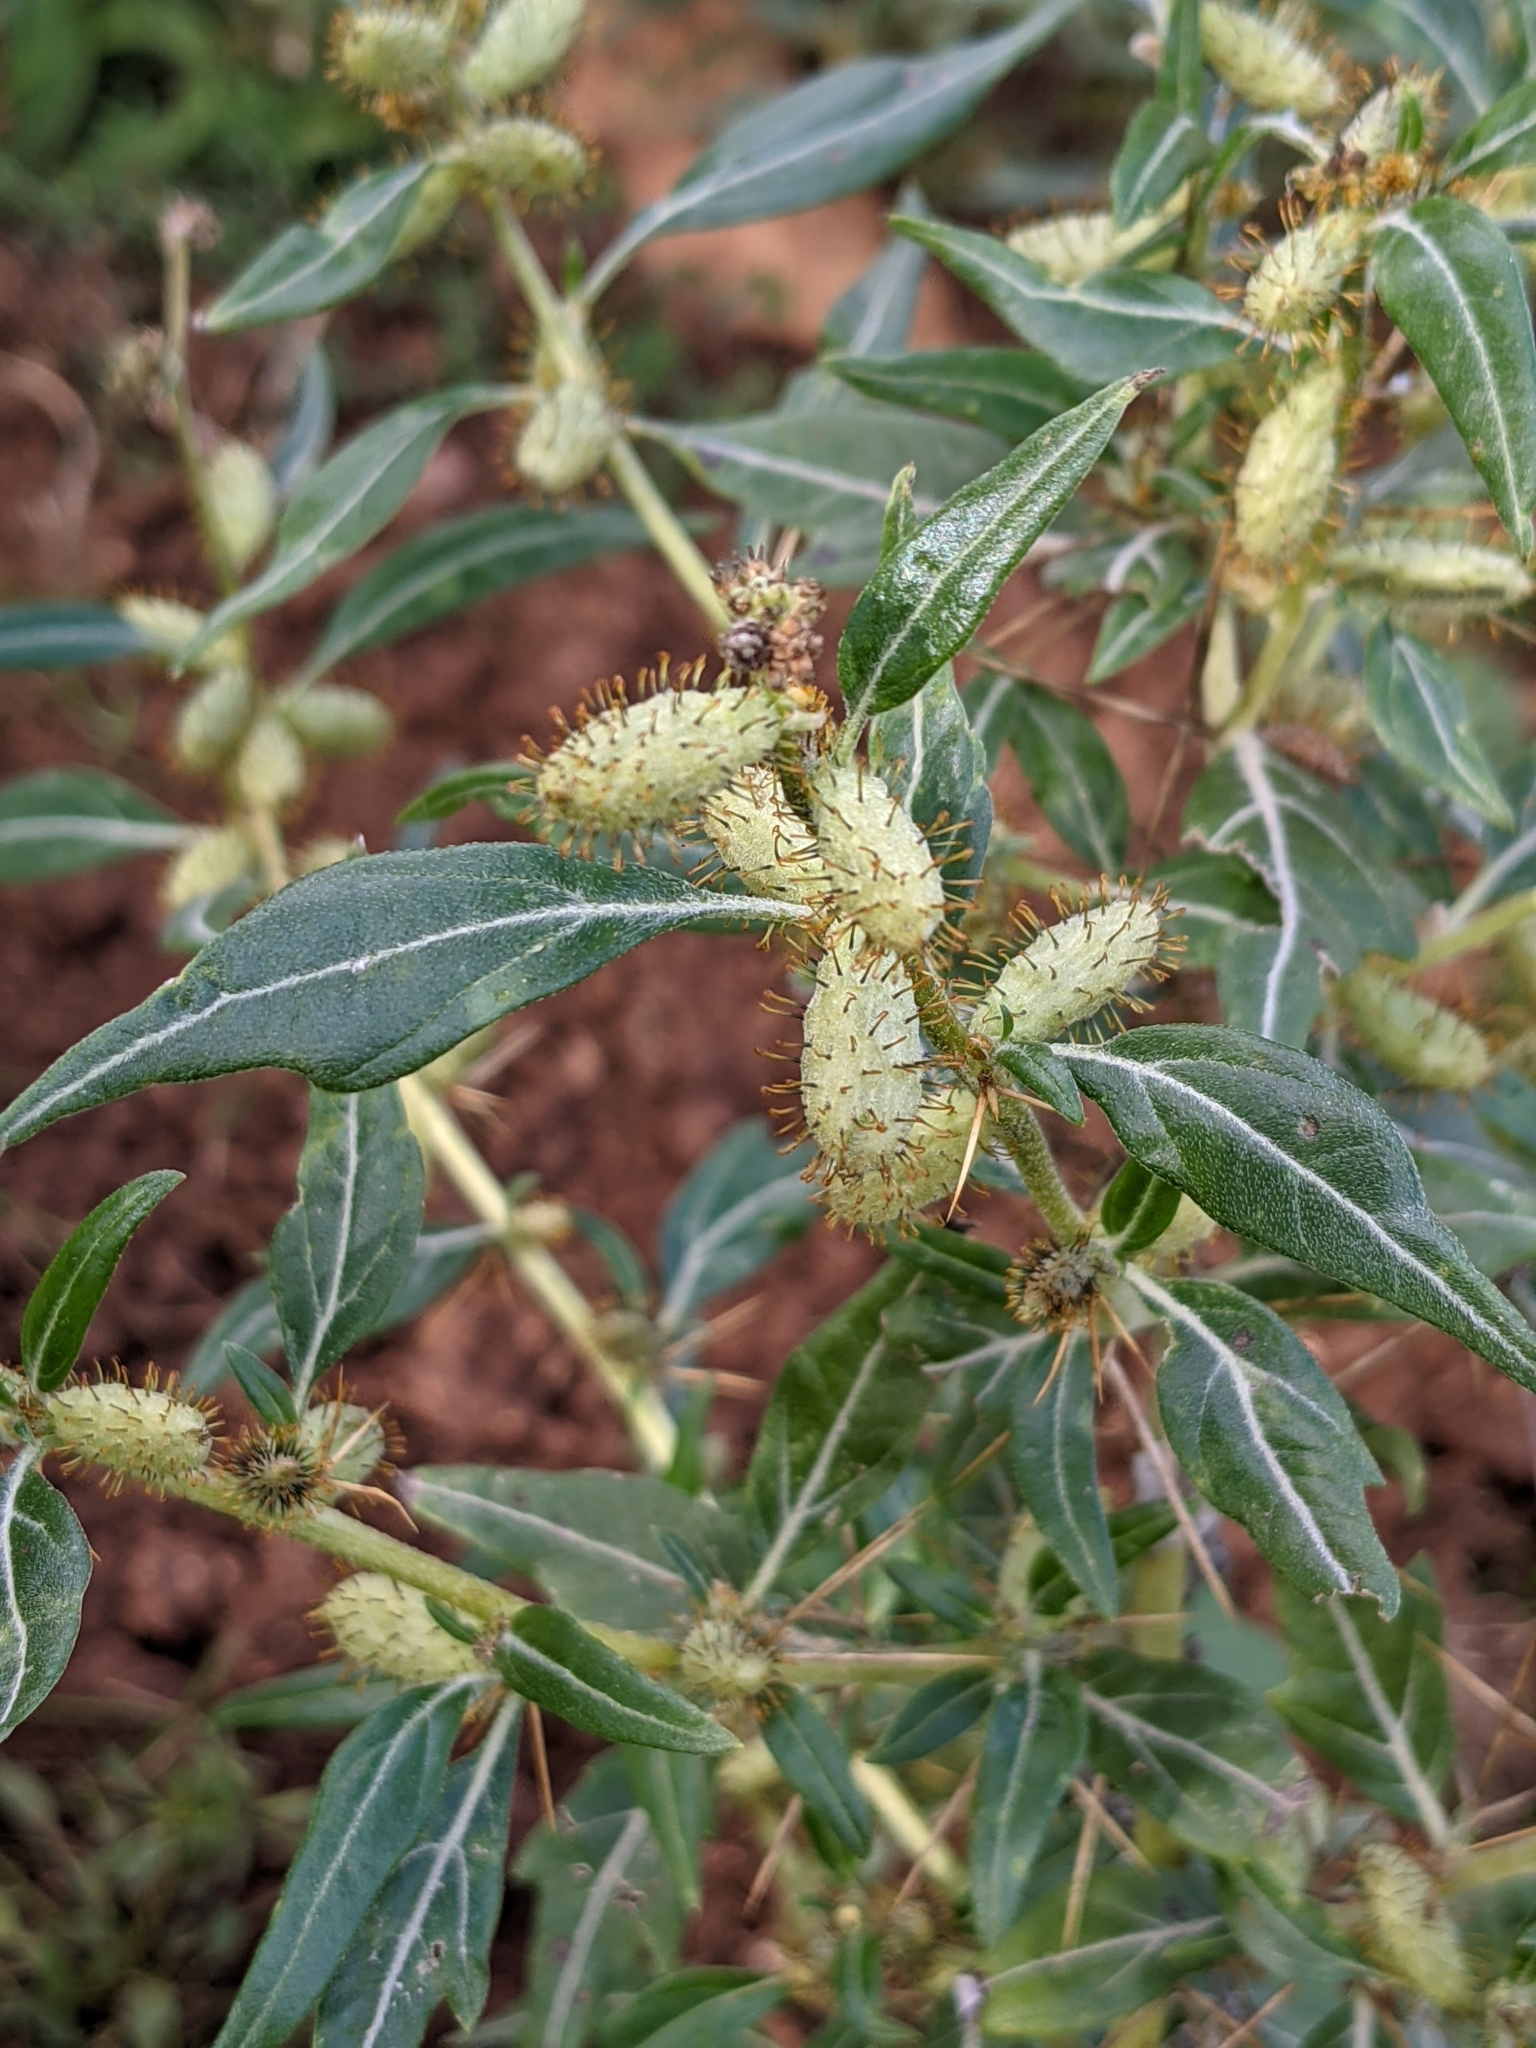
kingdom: Plantae
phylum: Tracheophyta
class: Magnoliopsida
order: Asterales
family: Asteraceae
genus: Xanthium
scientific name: Xanthium spinosum
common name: Spiny cocklebur
